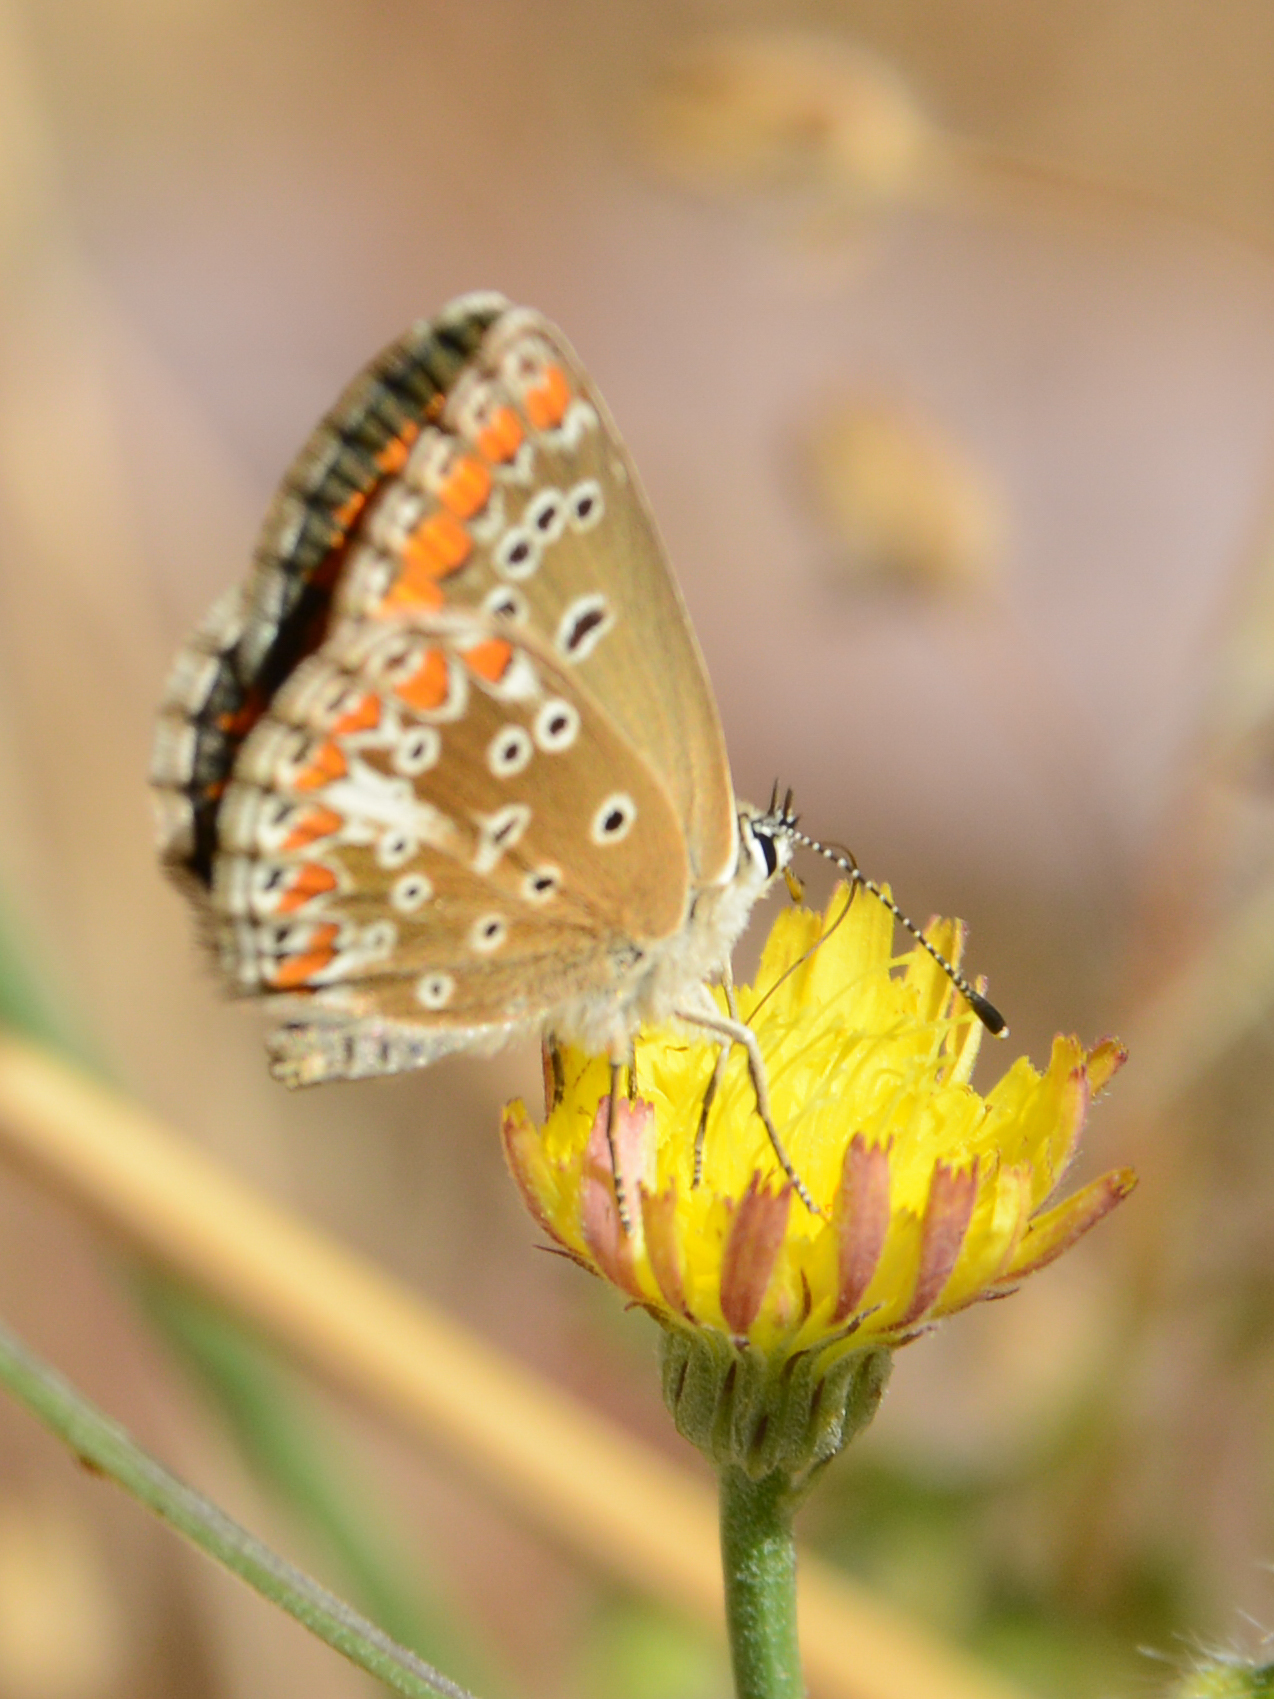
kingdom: Animalia
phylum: Arthropoda
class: Insecta
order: Lepidoptera
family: Lycaenidae
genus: Aricia
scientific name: Aricia agestis
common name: Brown argus
